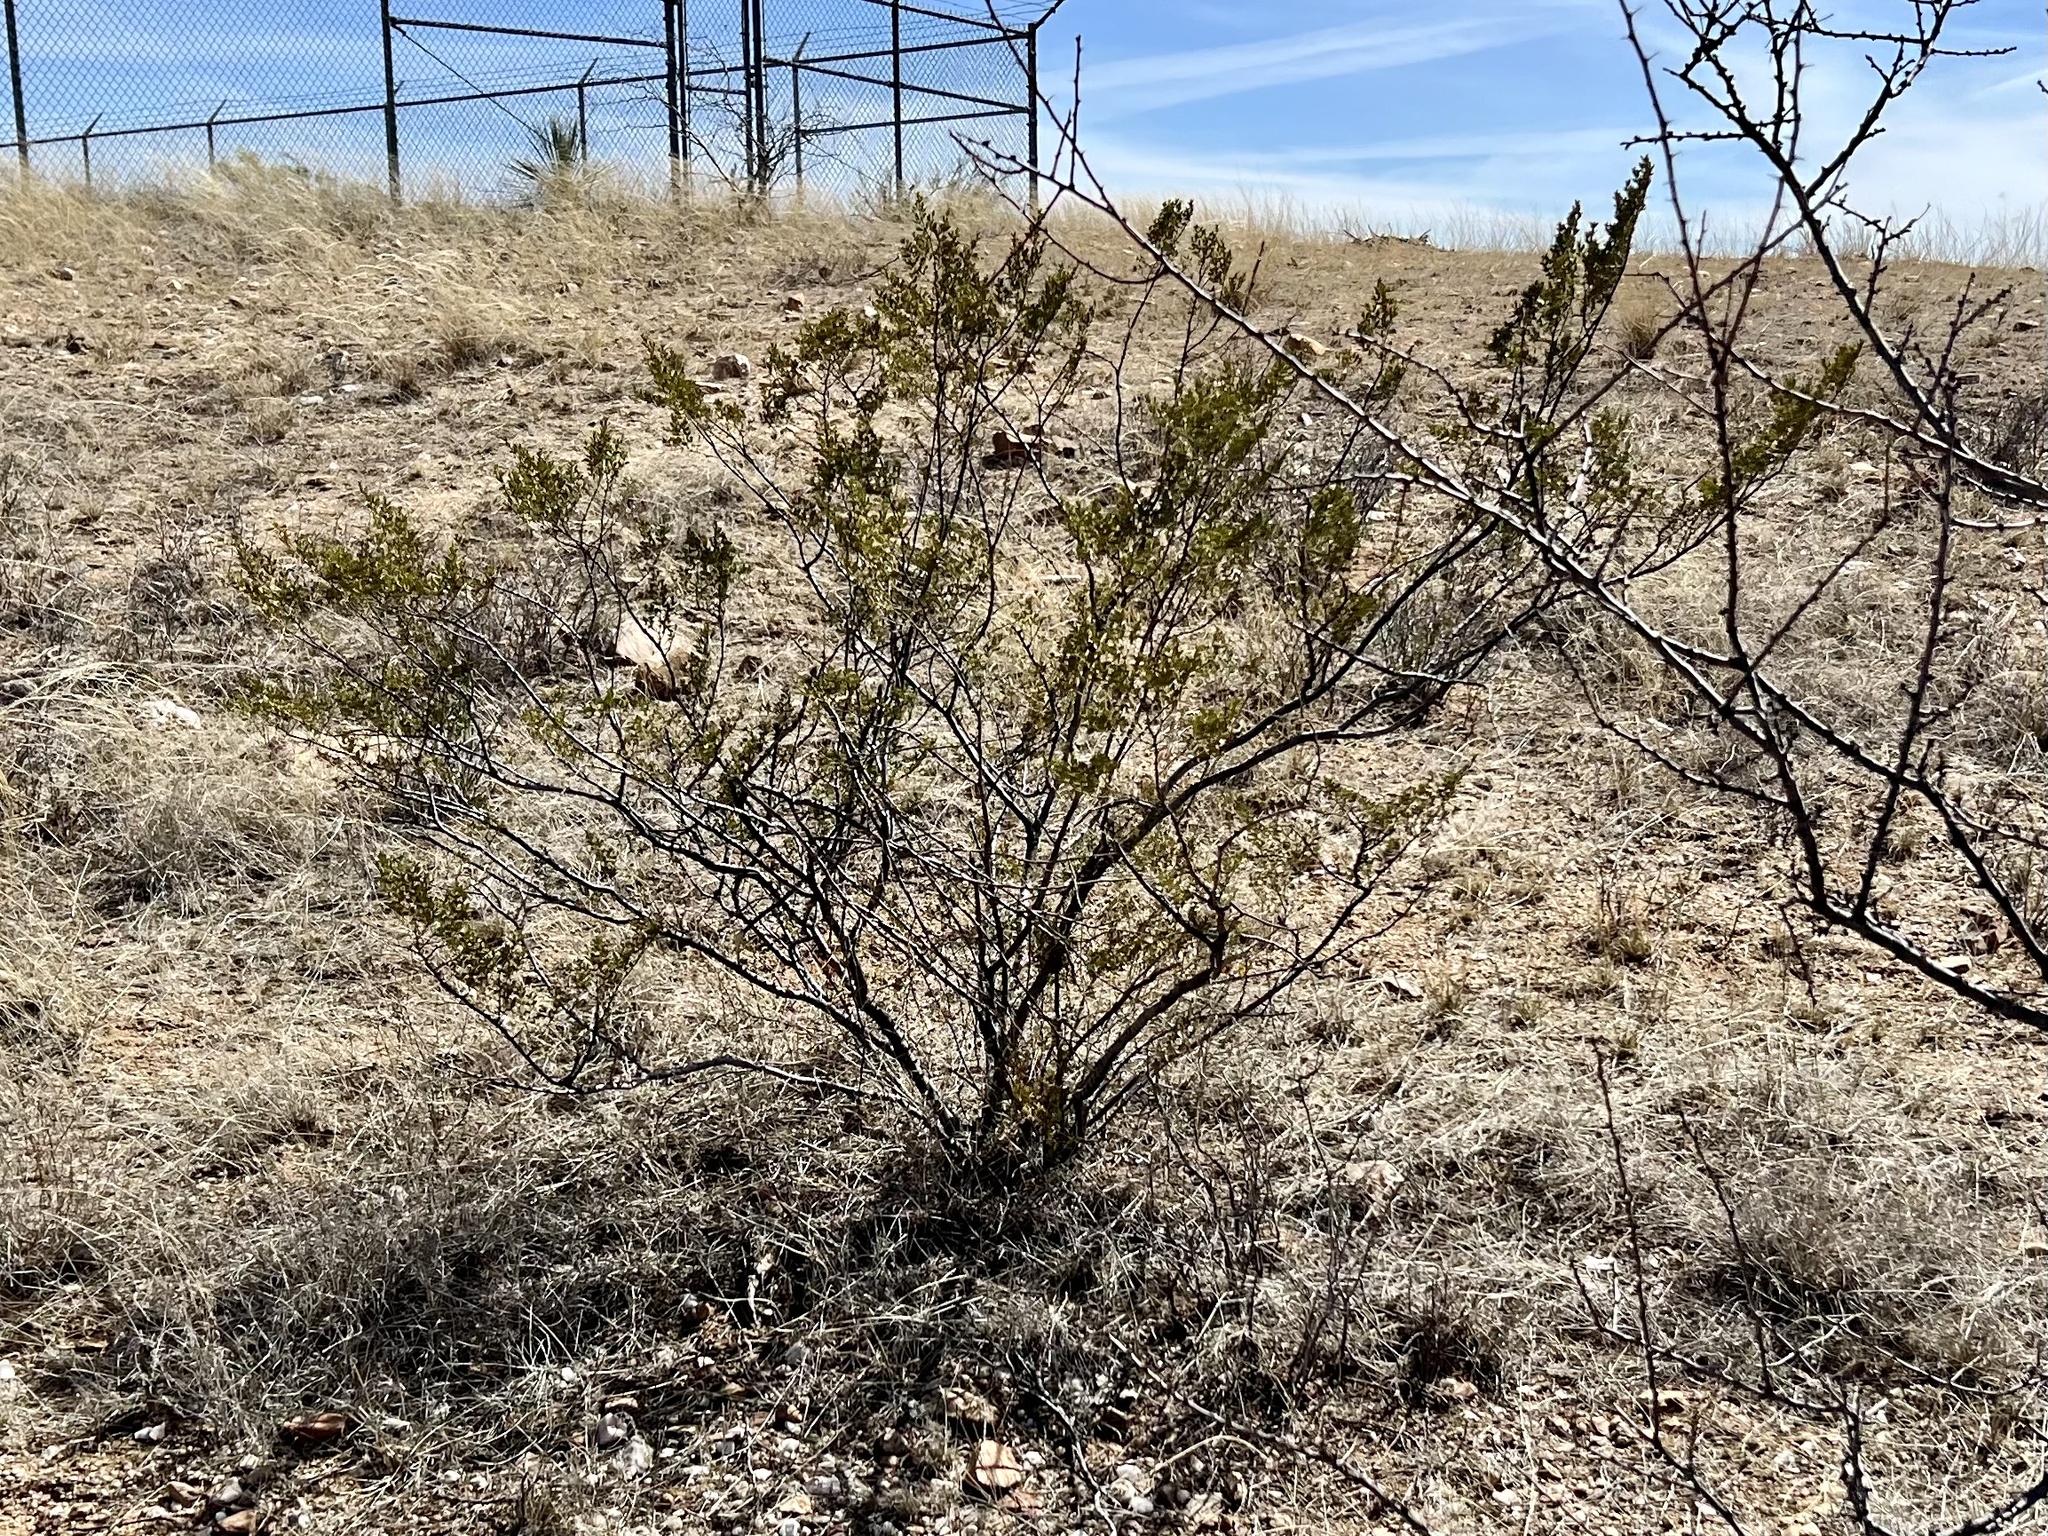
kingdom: Plantae
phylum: Tracheophyta
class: Magnoliopsida
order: Zygophyllales
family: Zygophyllaceae
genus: Larrea
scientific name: Larrea tridentata
